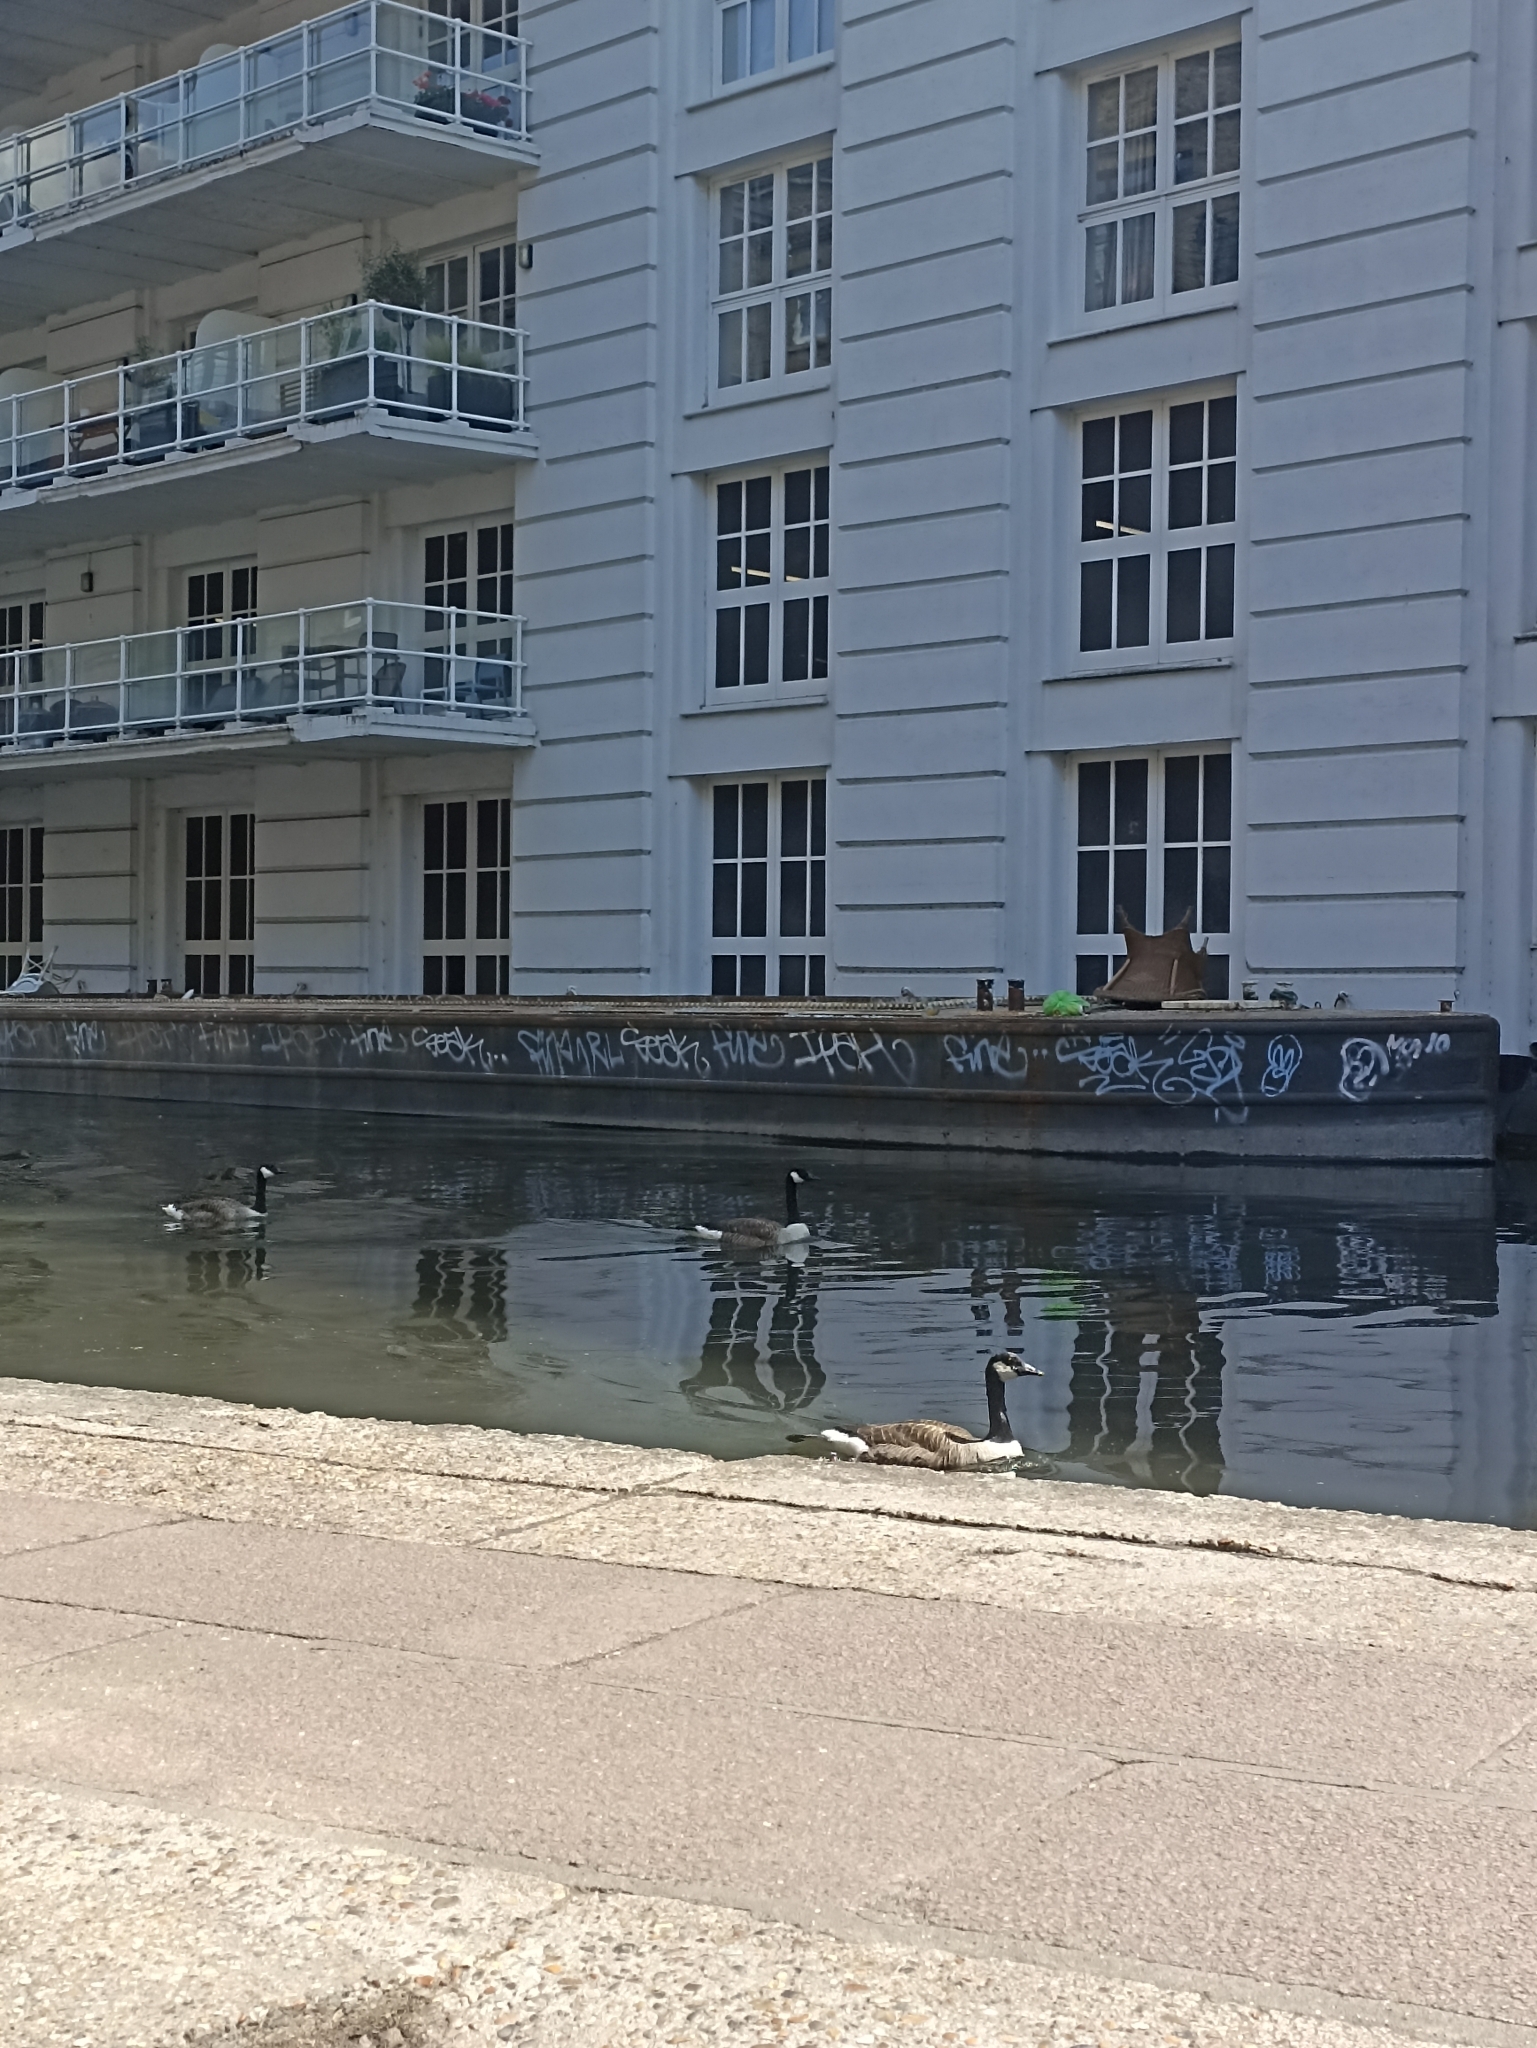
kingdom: Animalia
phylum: Chordata
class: Aves
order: Anseriformes
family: Anatidae
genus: Branta
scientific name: Branta canadensis
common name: Canada goose
